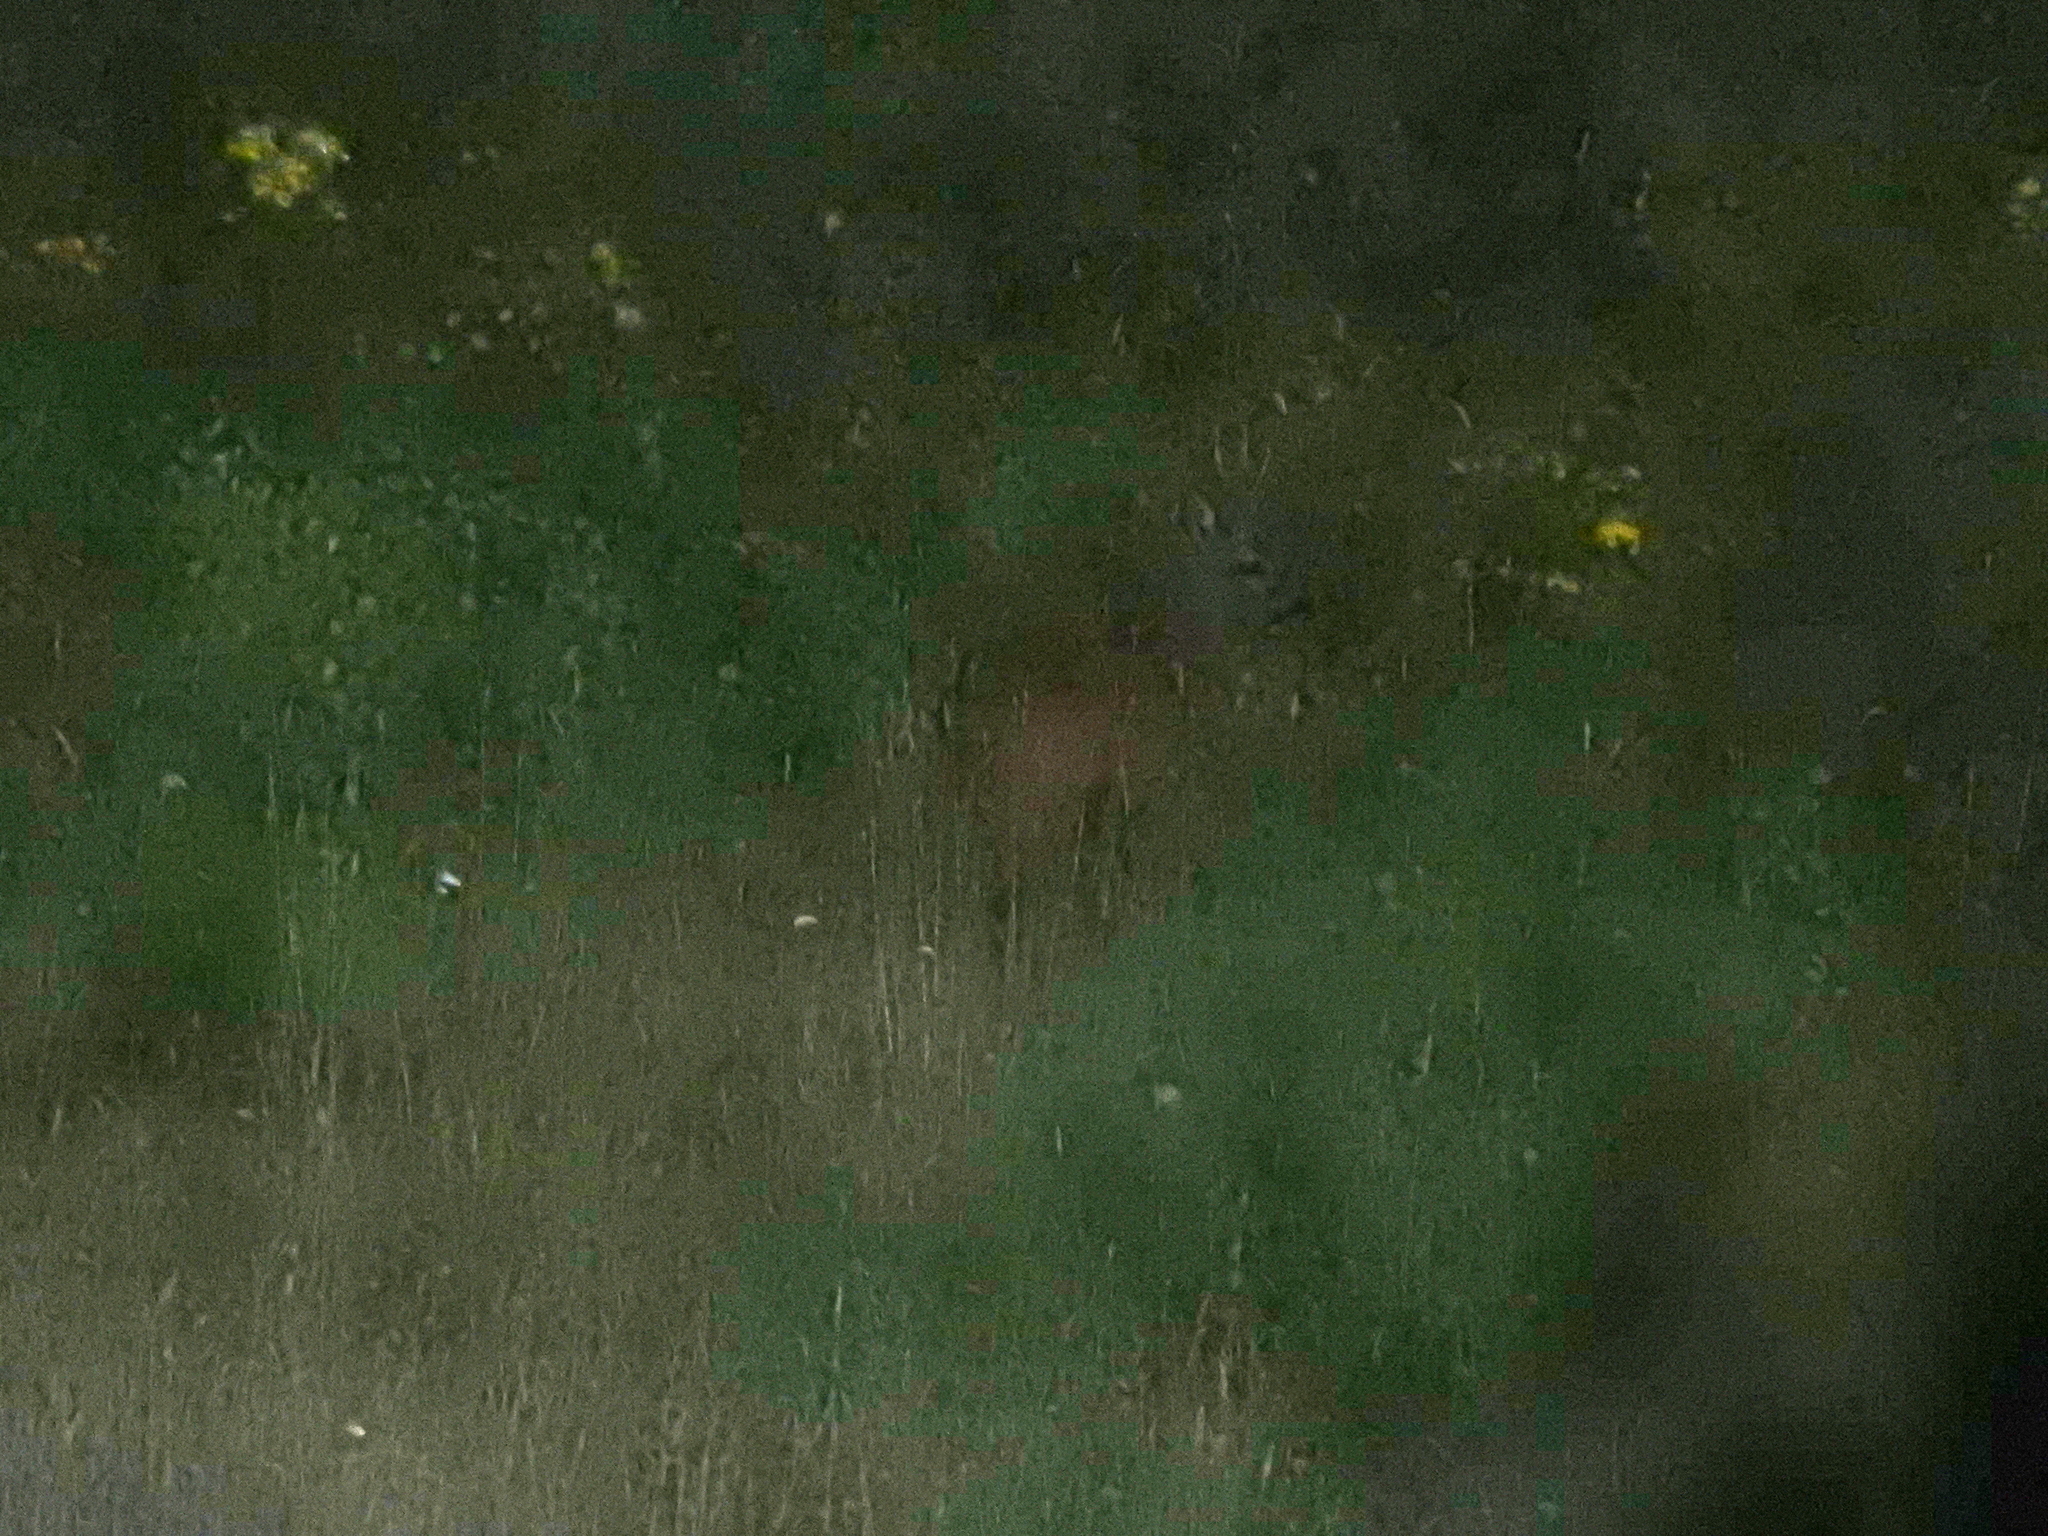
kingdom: Animalia
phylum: Chordata
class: Mammalia
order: Artiodactyla
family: Cervidae
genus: Capreolus
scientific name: Capreolus capreolus
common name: Western roe deer
